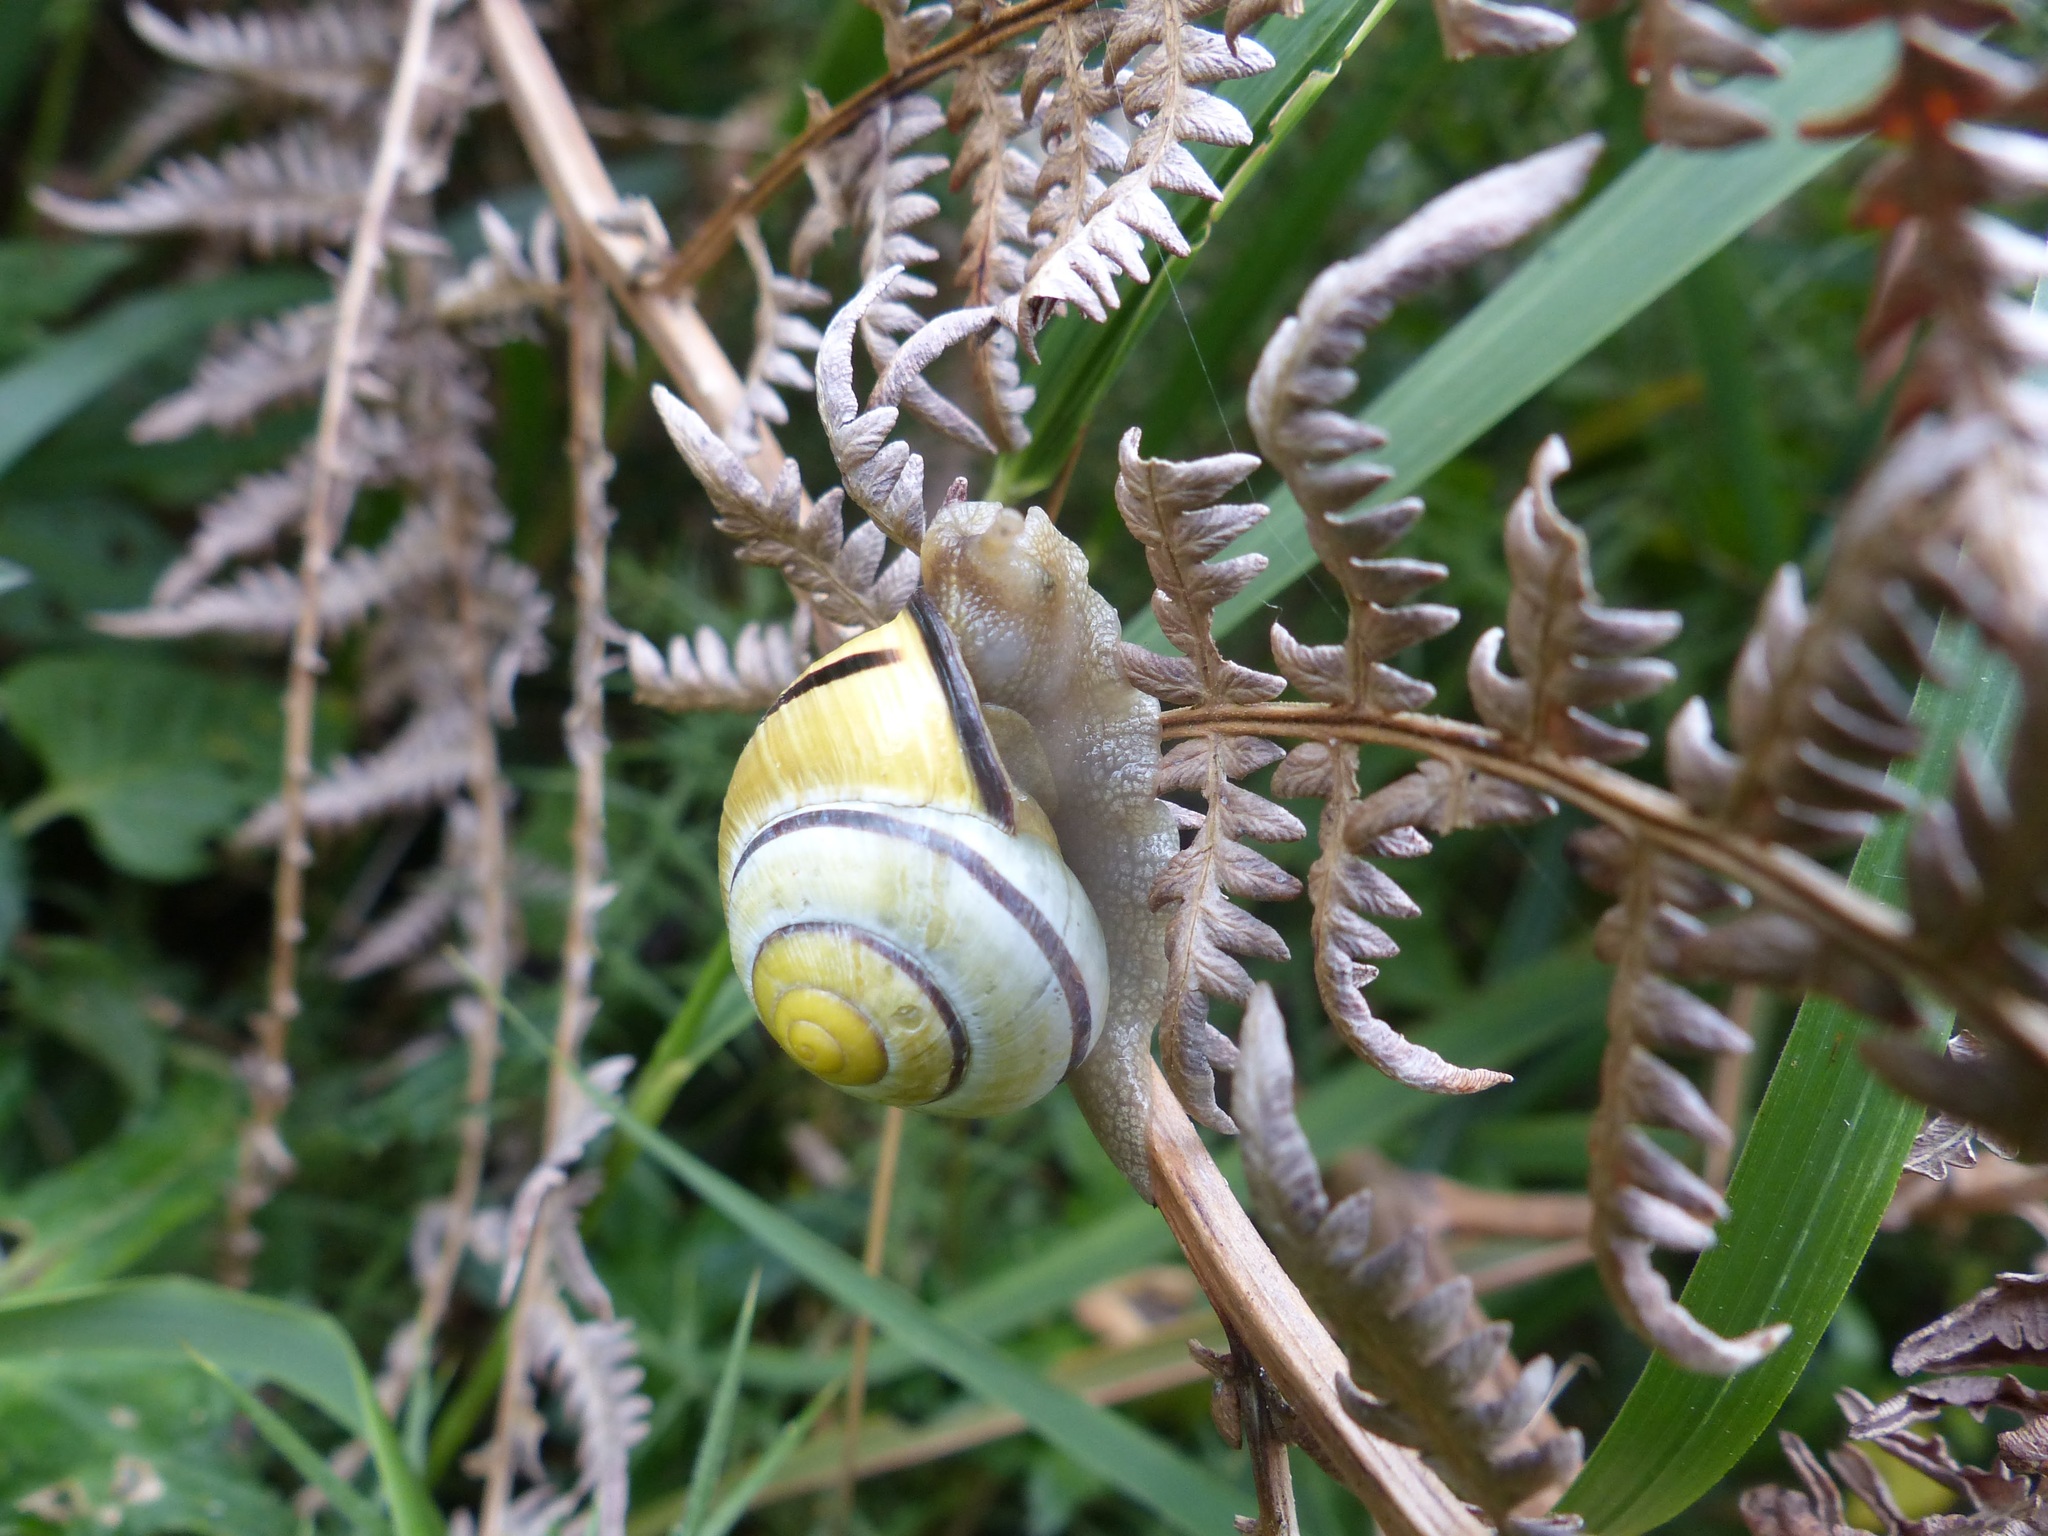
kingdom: Animalia
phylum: Mollusca
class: Gastropoda
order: Stylommatophora
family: Helicidae
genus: Cepaea
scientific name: Cepaea nemoralis
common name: Grovesnail
